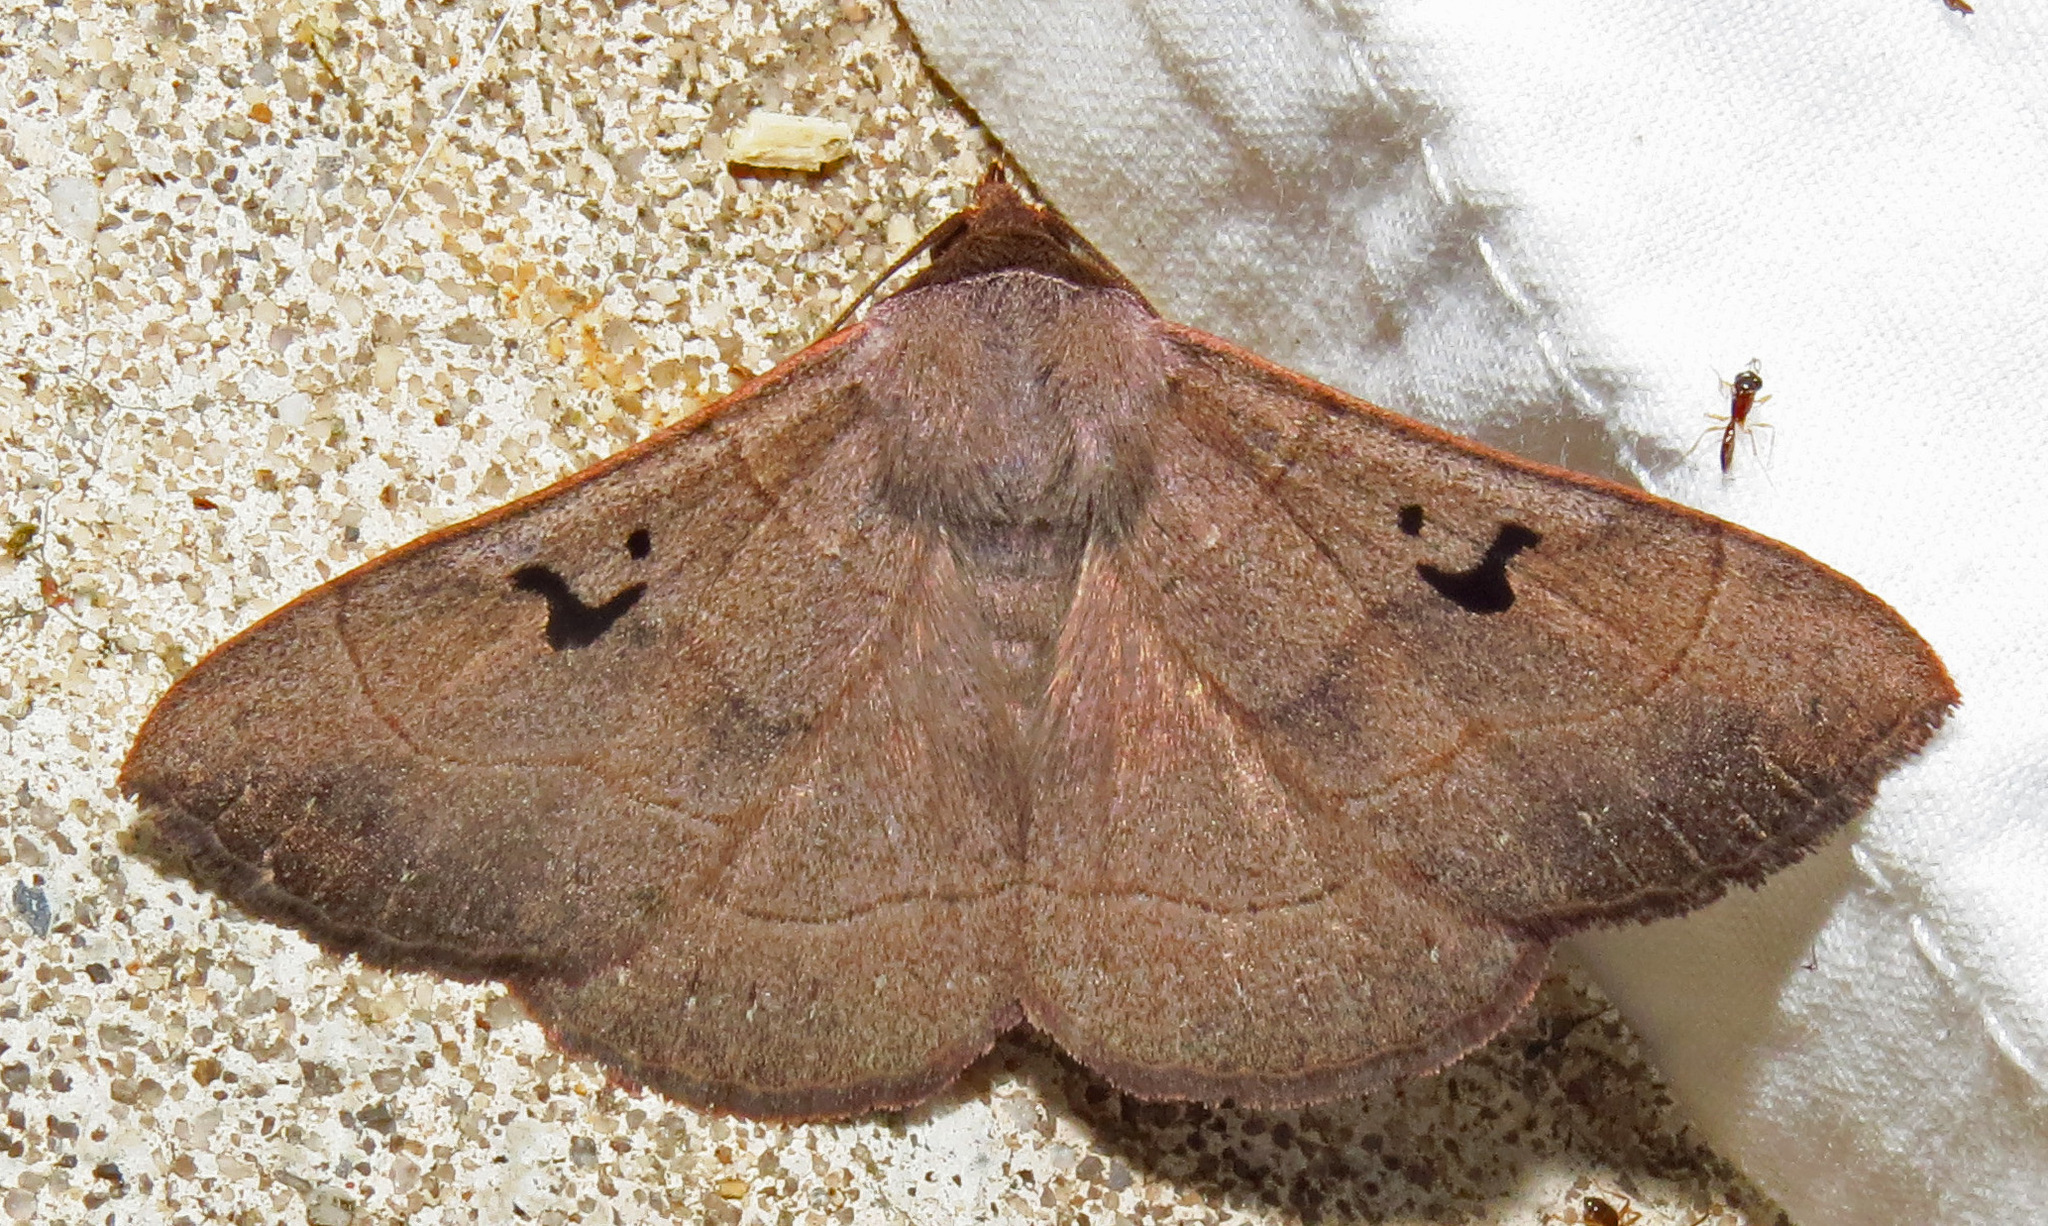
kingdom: Animalia
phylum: Arthropoda
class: Insecta
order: Lepidoptera
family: Erebidae
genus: Panopoda
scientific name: Panopoda carneicosta
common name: Brown panopoda moth
